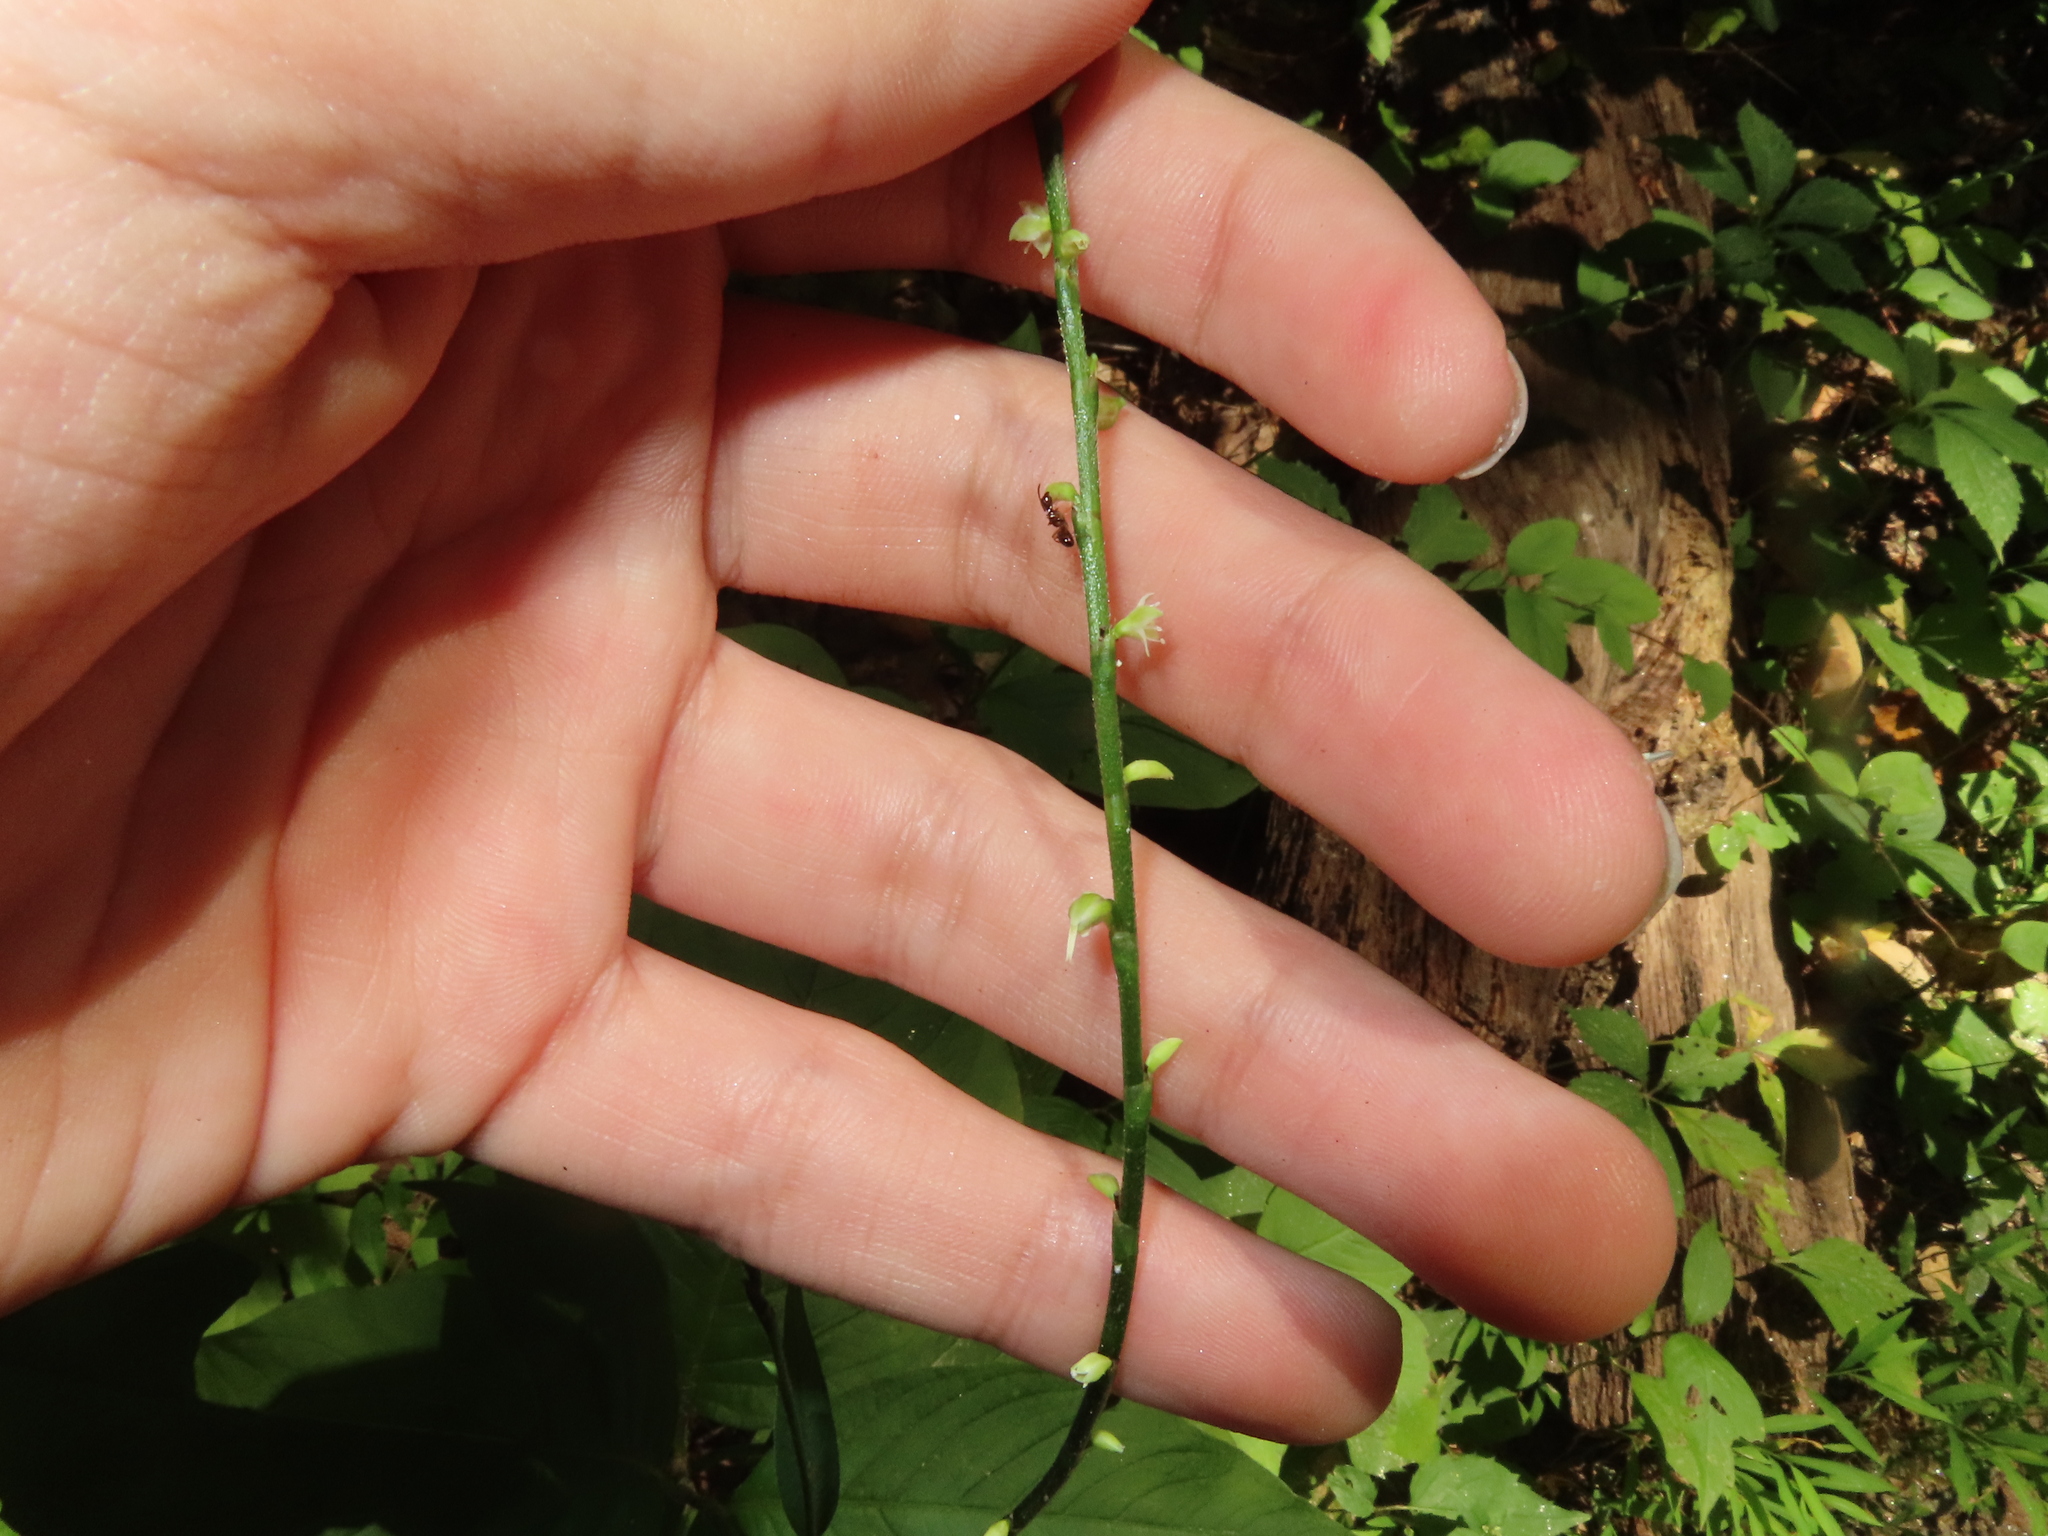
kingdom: Plantae
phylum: Tracheophyta
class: Magnoliopsida
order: Caryophyllales
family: Polygonaceae
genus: Persicaria
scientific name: Persicaria virginiana
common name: Jumpseed
